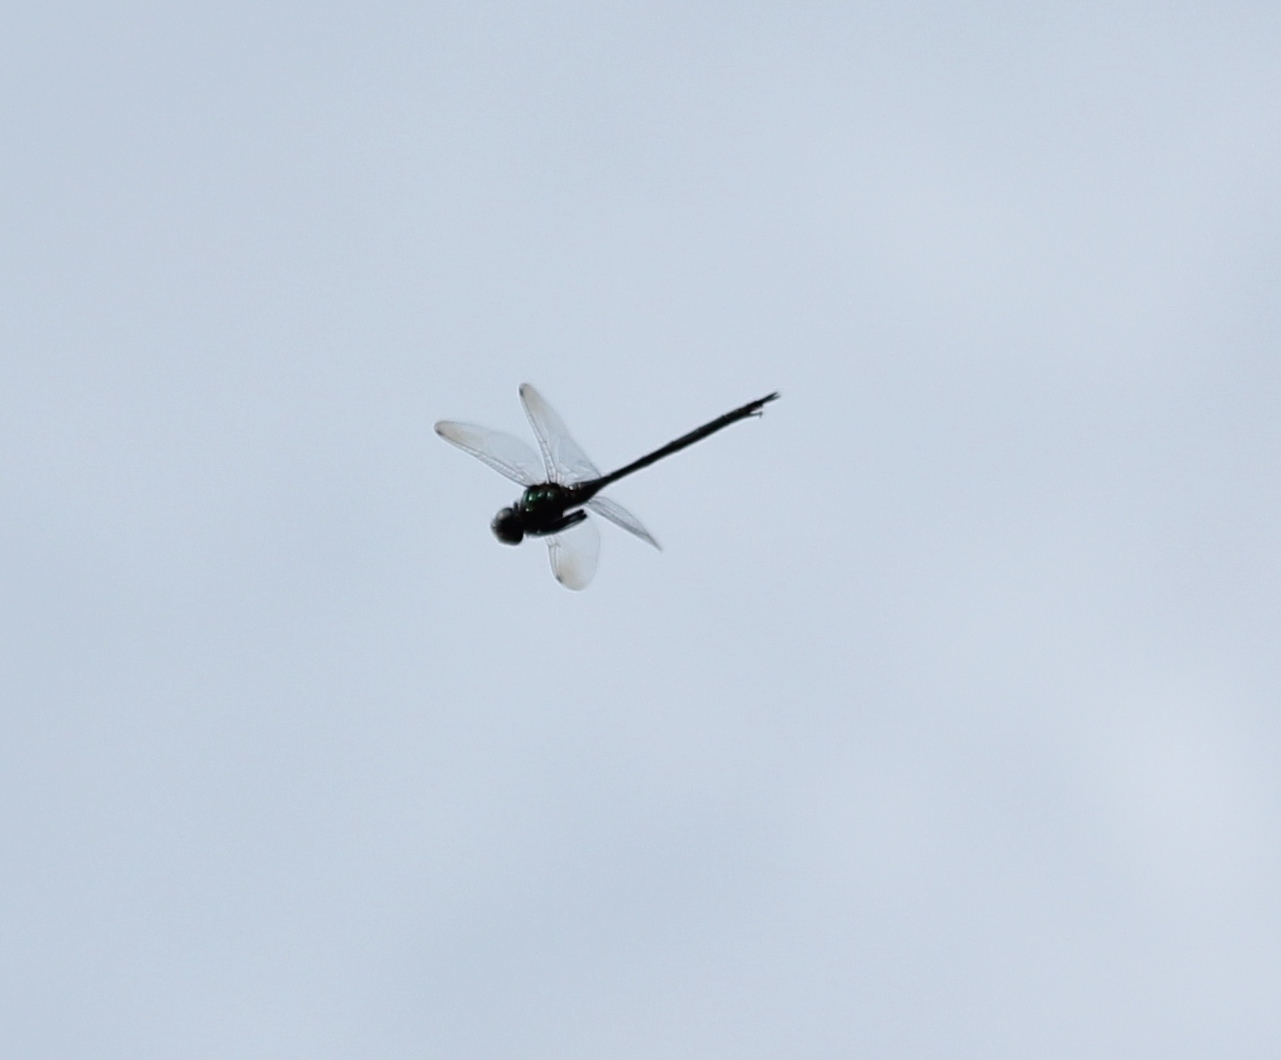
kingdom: Animalia
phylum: Arthropoda
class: Insecta
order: Odonata
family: Corduliidae
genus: Somatochlora
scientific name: Somatochlora filosa
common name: Fine-lined emerald
